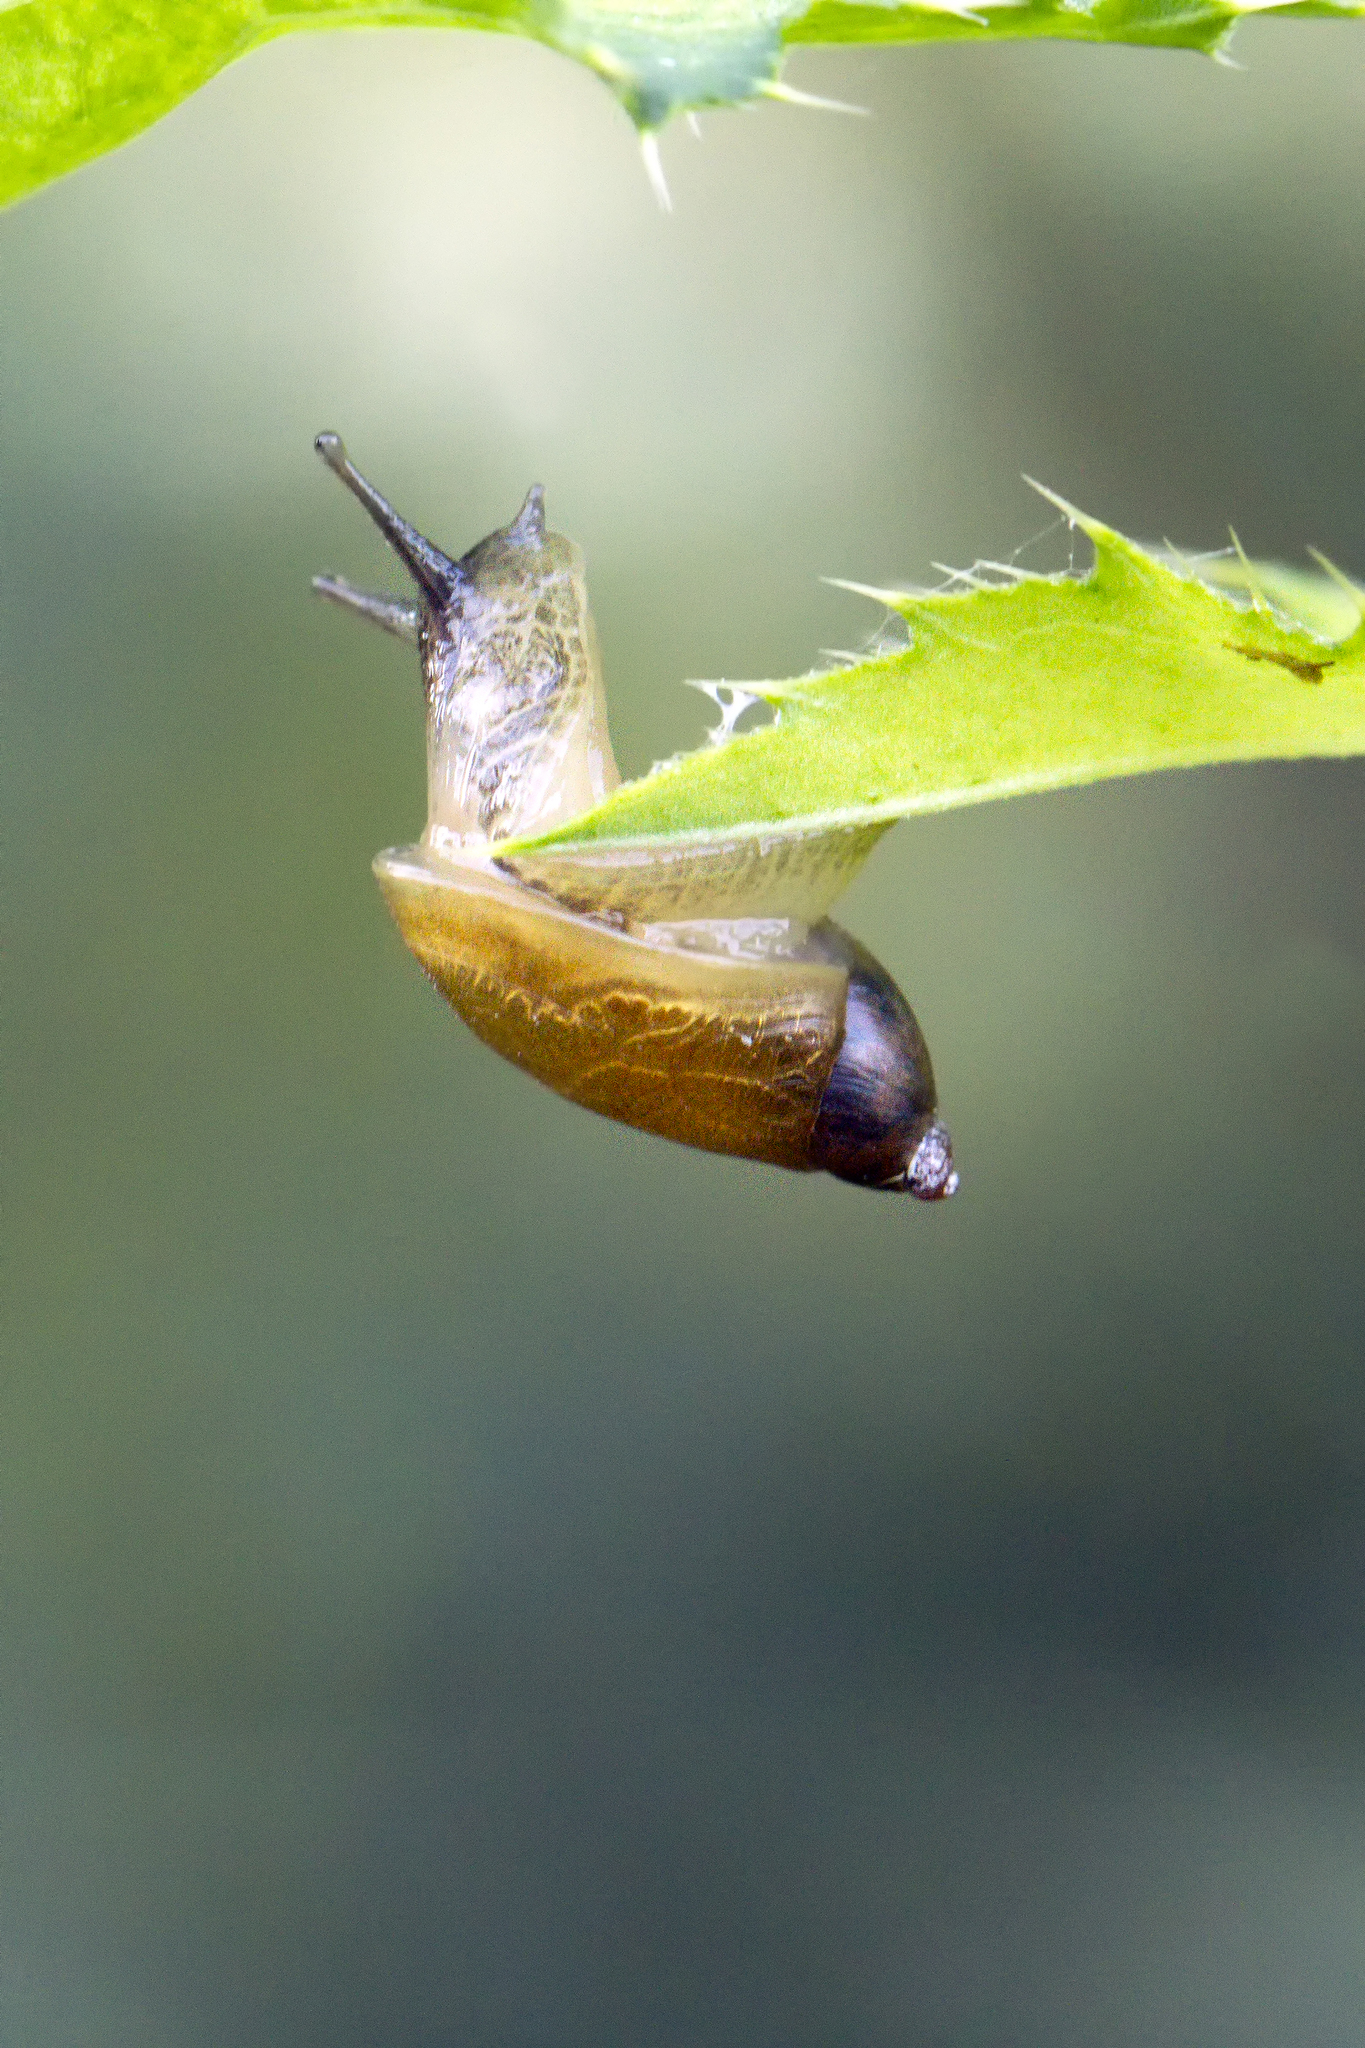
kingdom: Animalia
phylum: Mollusca
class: Gastropoda
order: Stylommatophora
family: Succineidae
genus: Succinea
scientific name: Succinea putris
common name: European ambersnail
